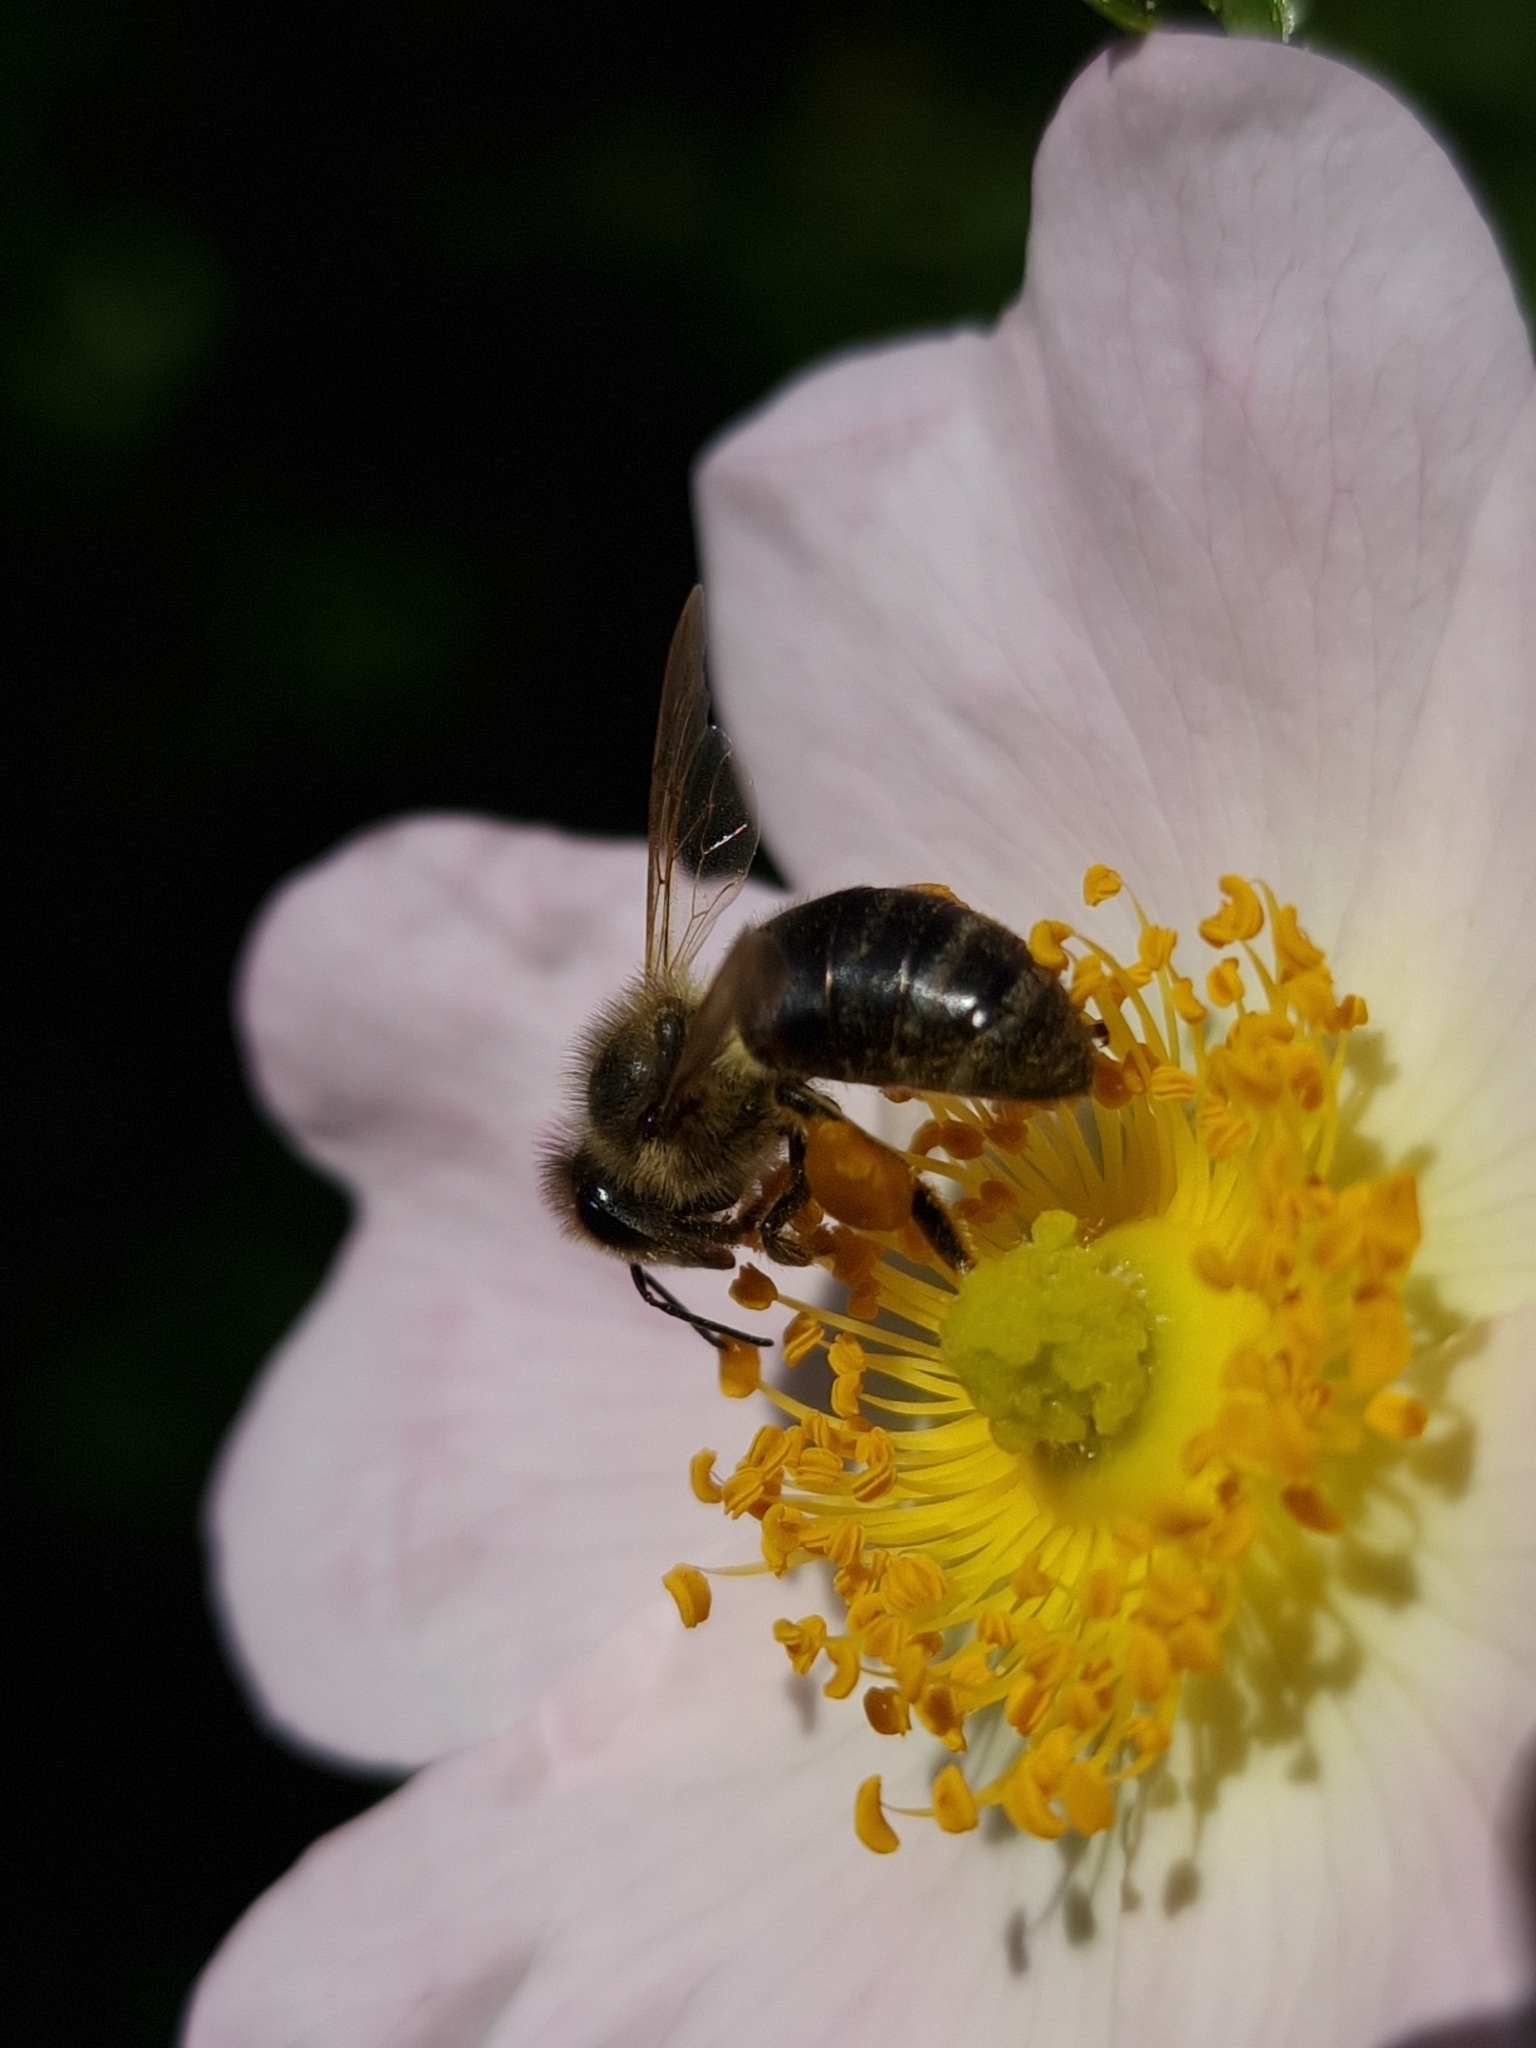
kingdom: Animalia
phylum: Arthropoda
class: Insecta
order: Hymenoptera
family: Apidae
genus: Apis
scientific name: Apis mellifera
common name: Honey bee
